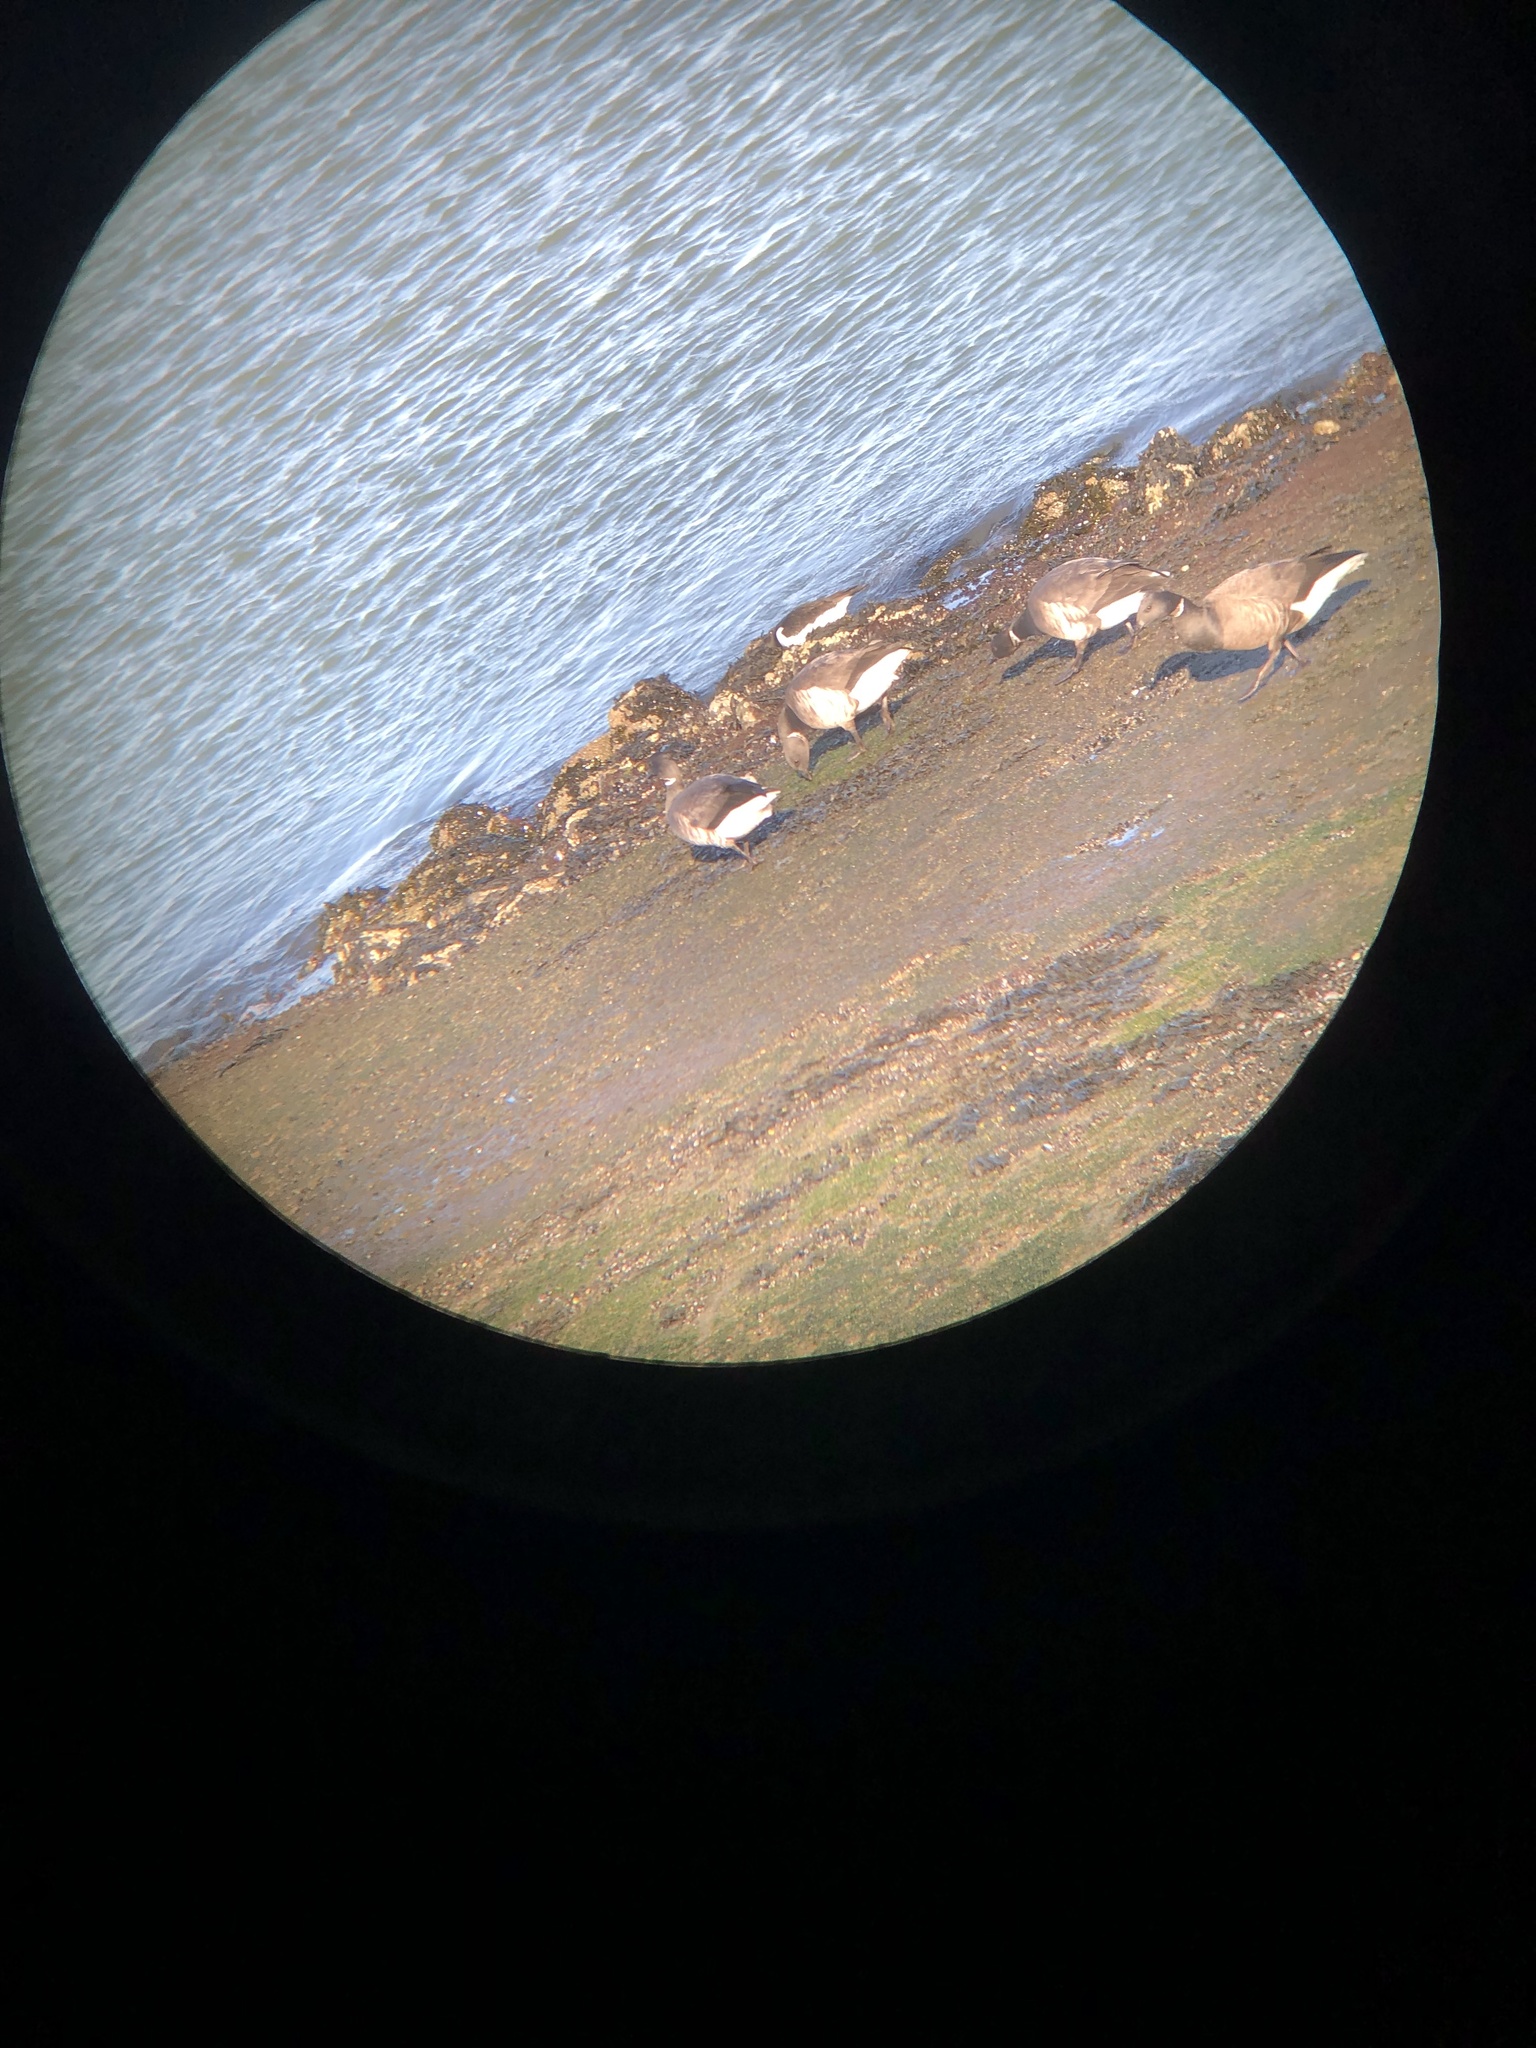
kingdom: Animalia
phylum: Chordata
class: Aves
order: Anseriformes
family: Anatidae
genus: Branta
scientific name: Branta bernicla
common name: Brant goose
